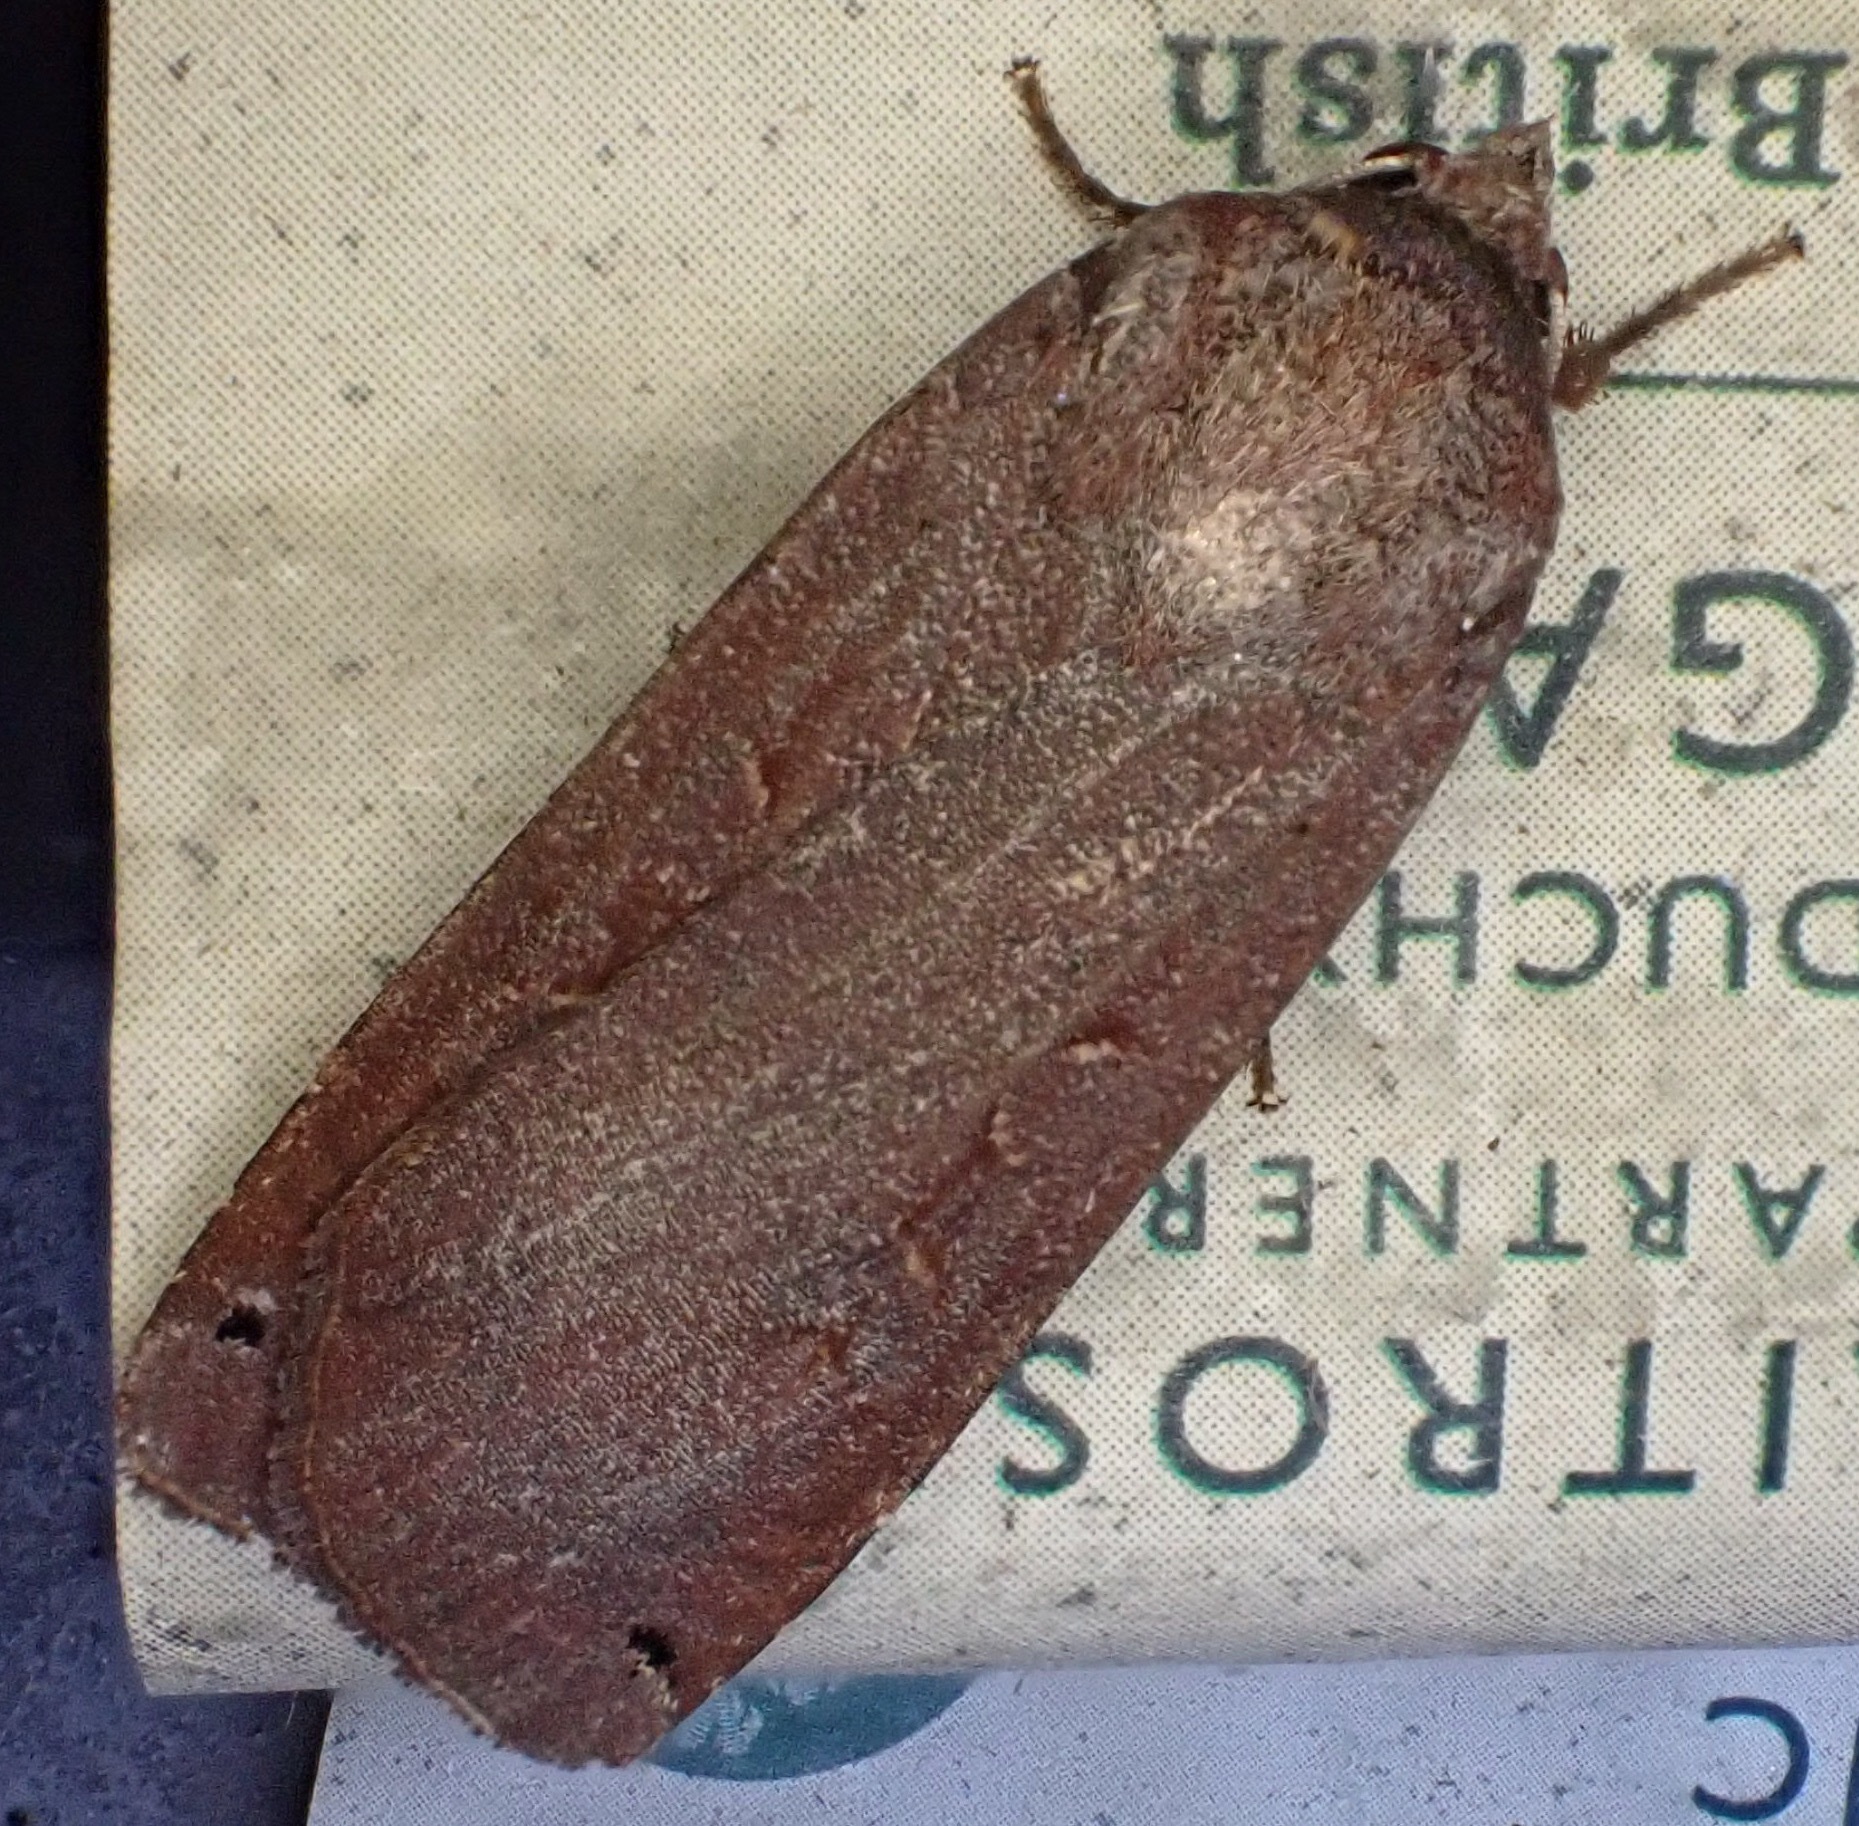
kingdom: Animalia
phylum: Arthropoda
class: Insecta
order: Lepidoptera
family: Noctuidae
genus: Noctua
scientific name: Noctua pronuba
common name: Large yellow underwing
